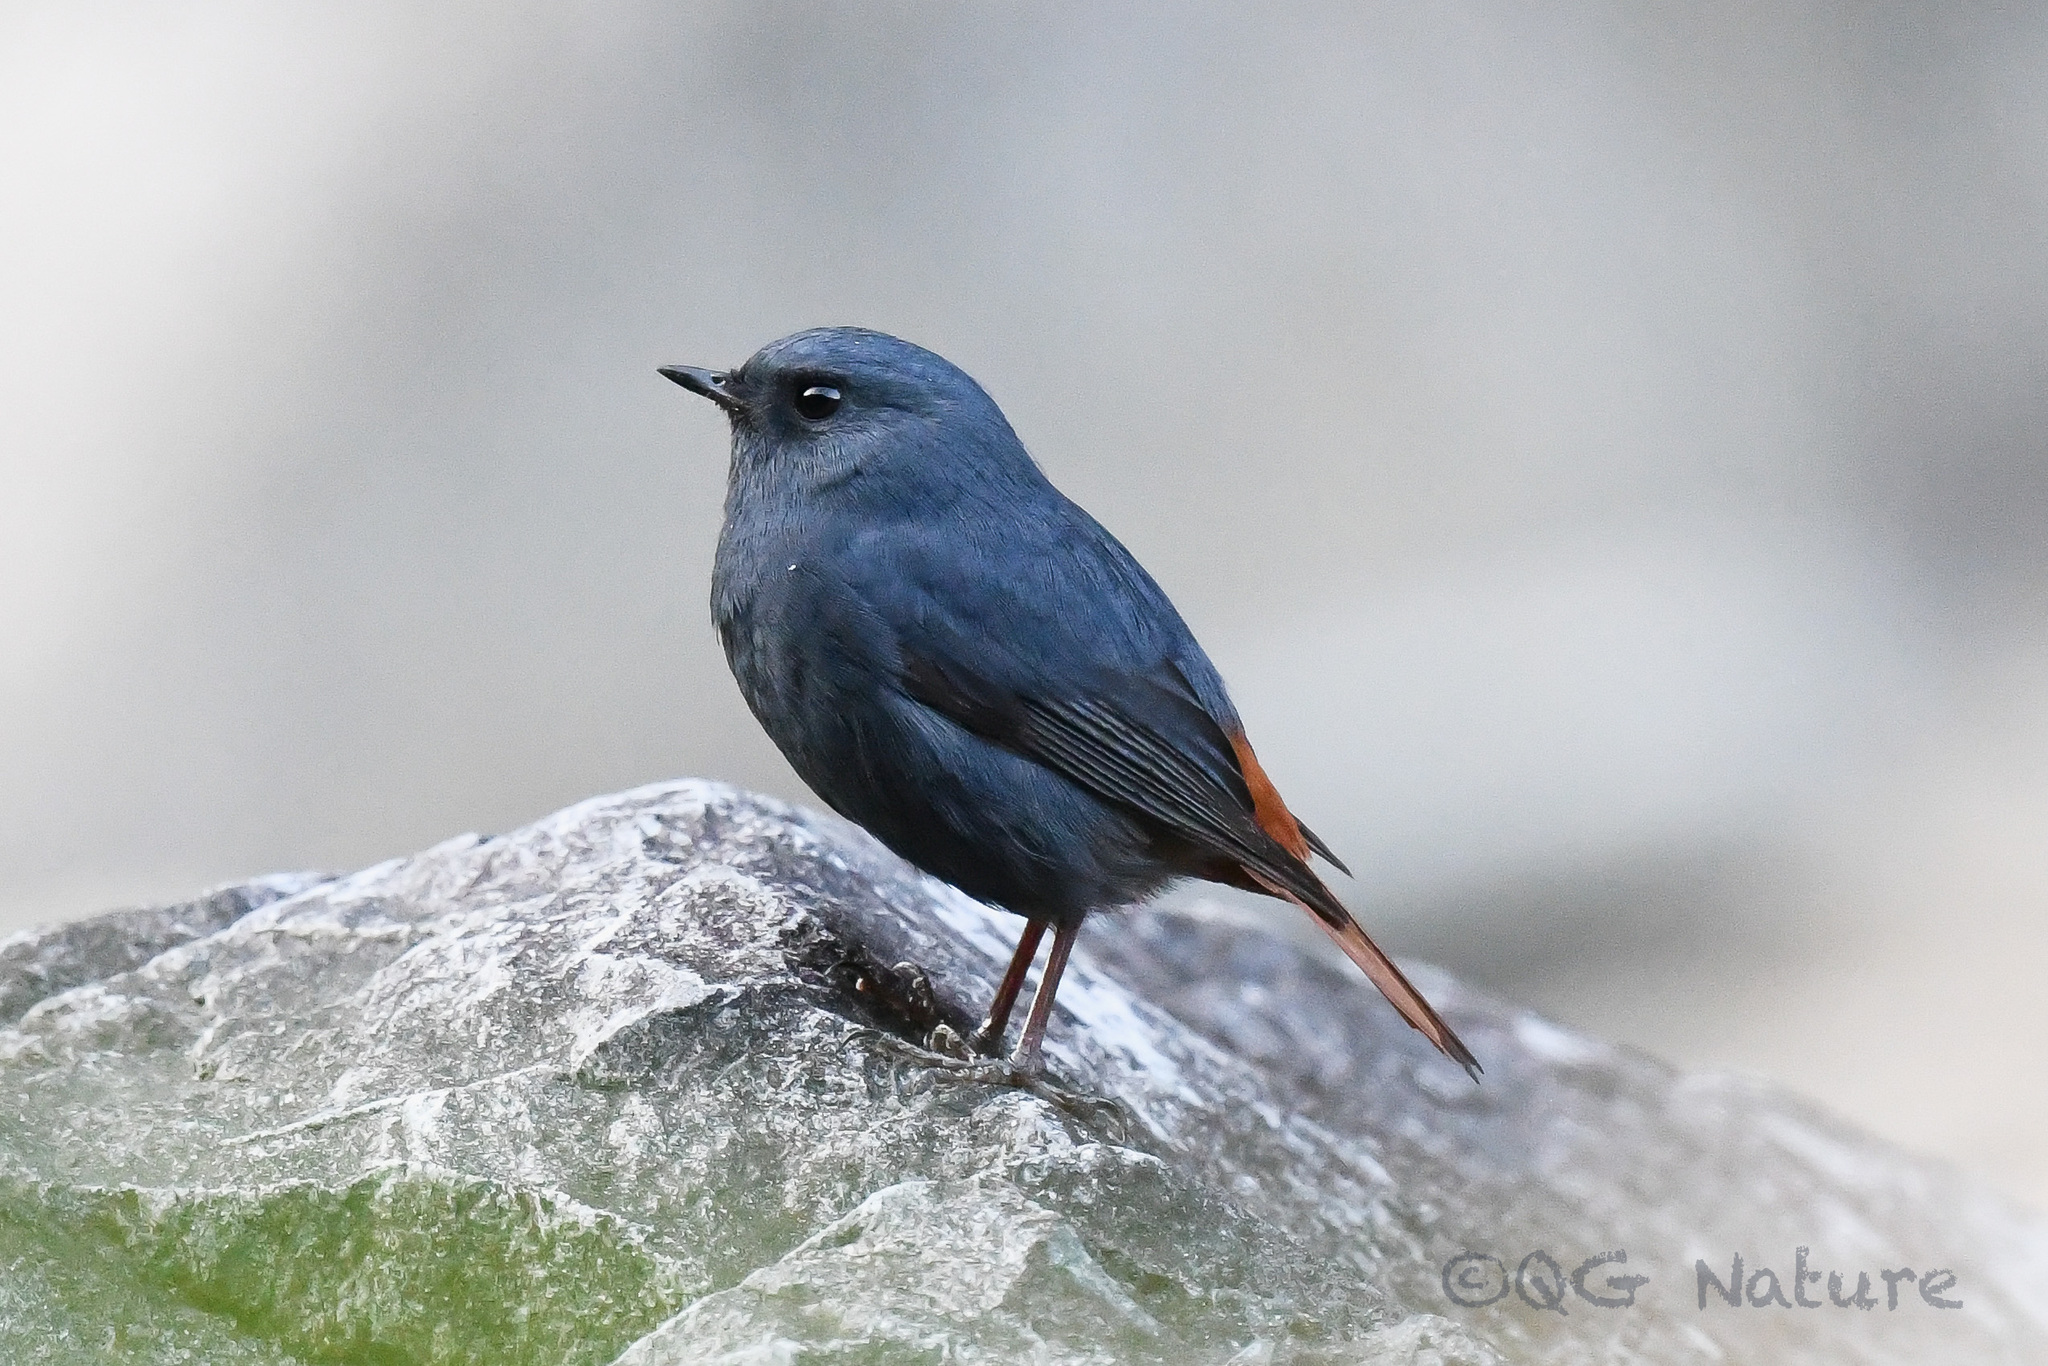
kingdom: Animalia
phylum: Chordata
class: Aves
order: Passeriformes
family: Muscicapidae
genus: Phoenicurus
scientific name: Phoenicurus fuliginosus
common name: Plumbeous water redstart
